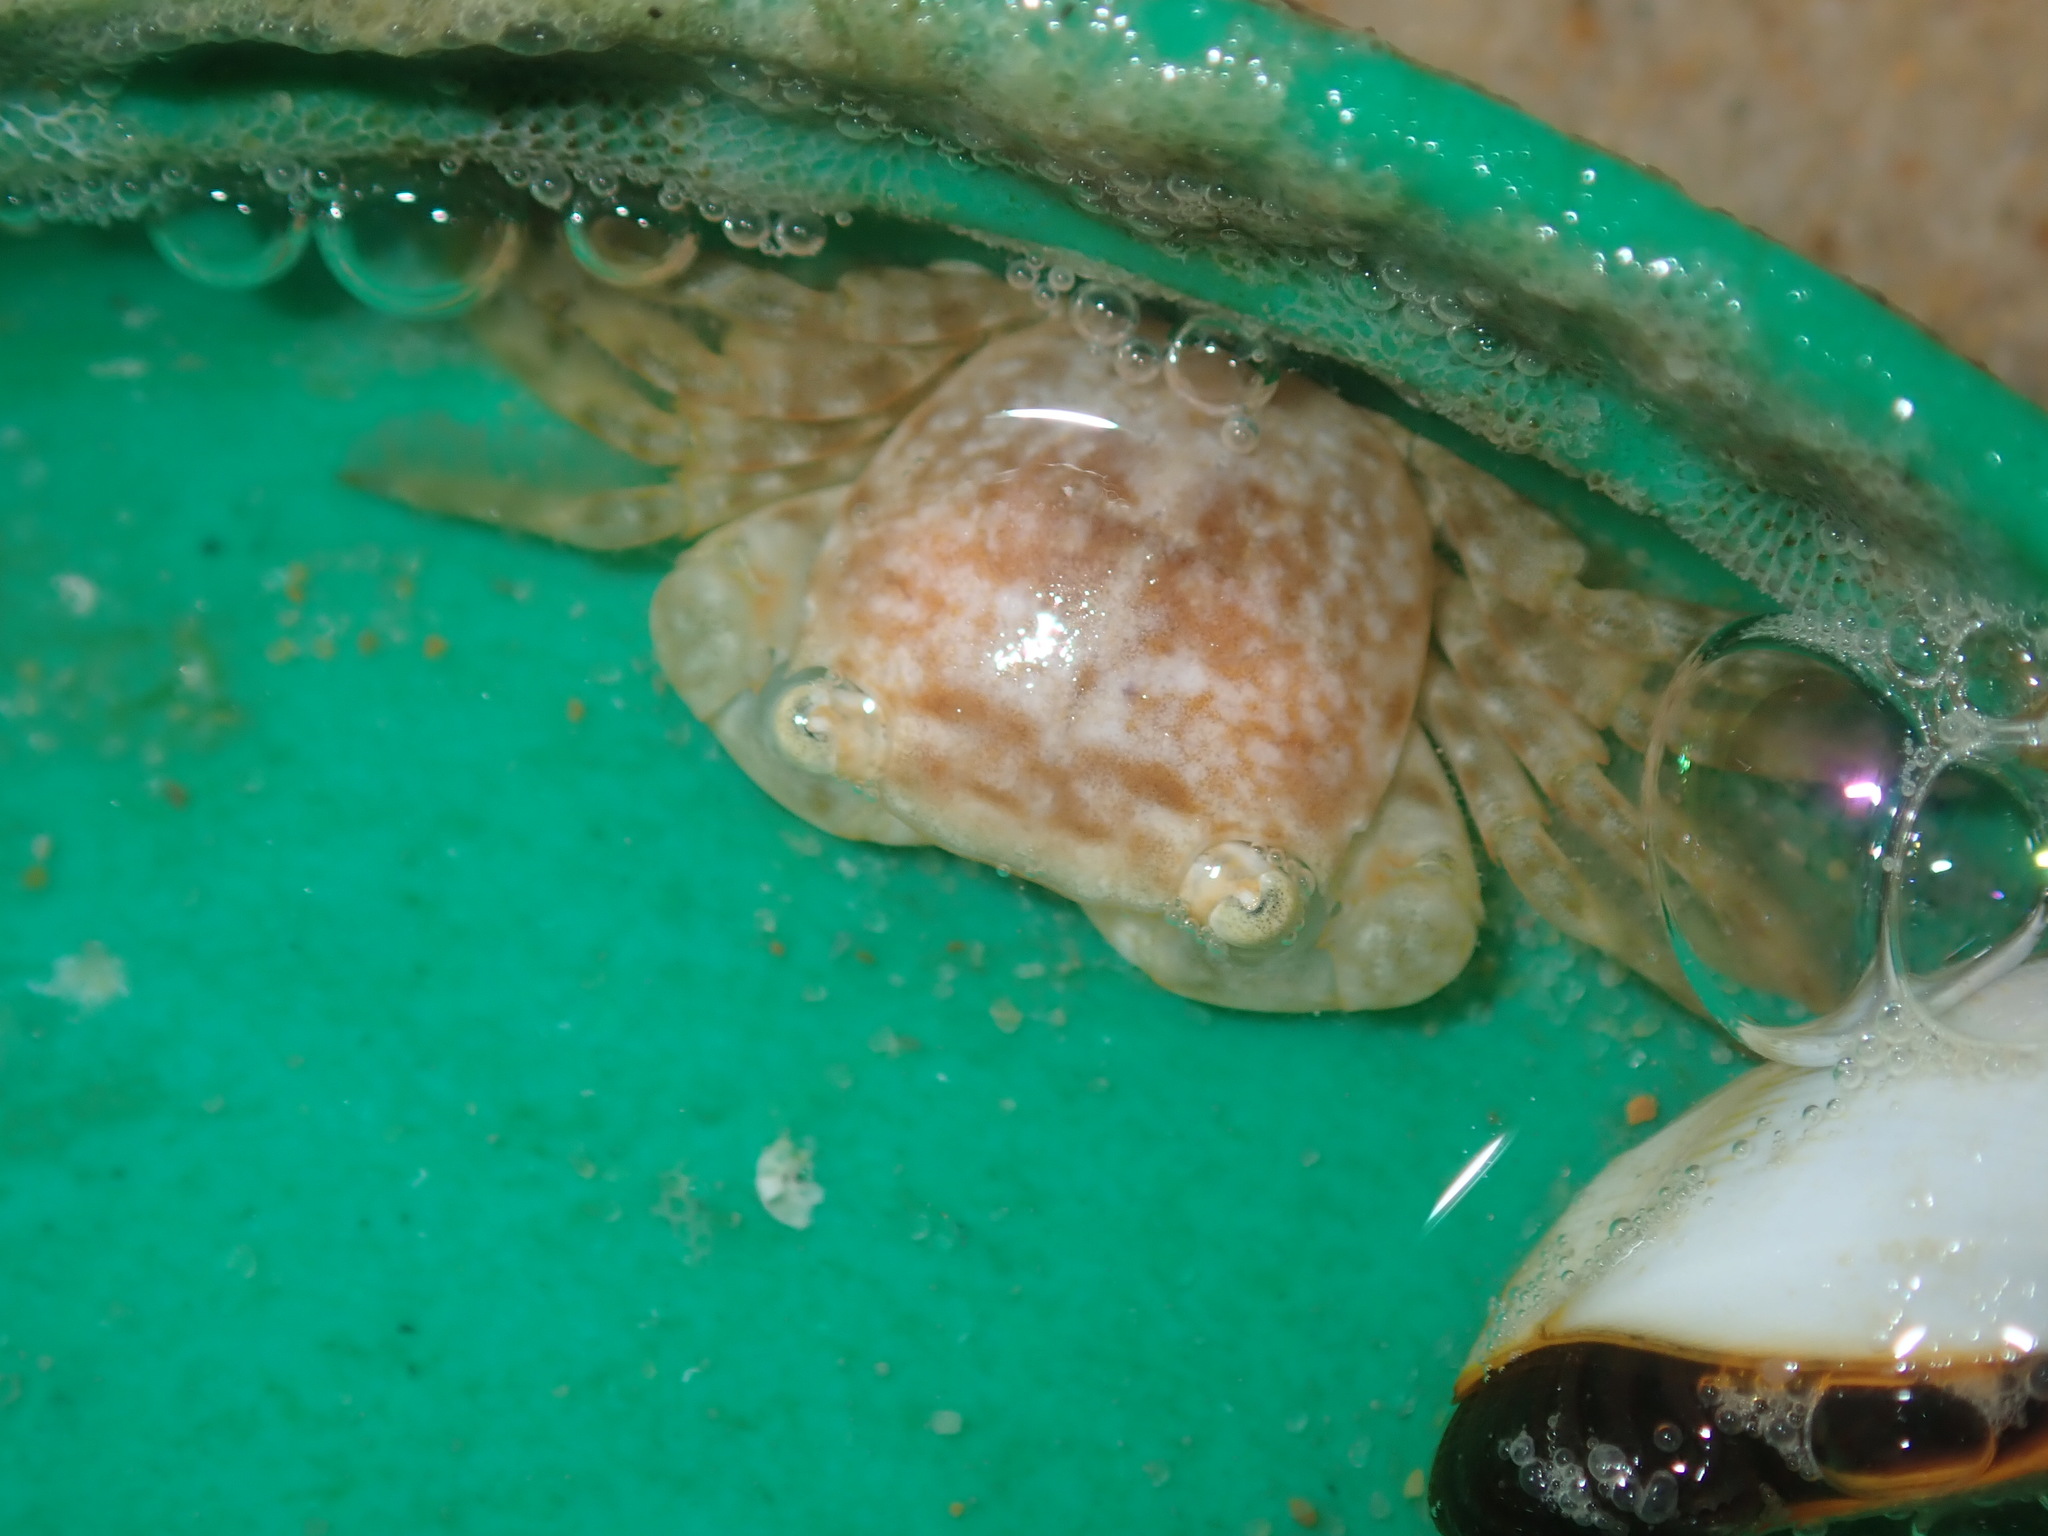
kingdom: Animalia
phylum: Arthropoda
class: Malacostraca
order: Decapoda
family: Grapsidae
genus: Planes
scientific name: Planes minutus
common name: Gulf weed crab
